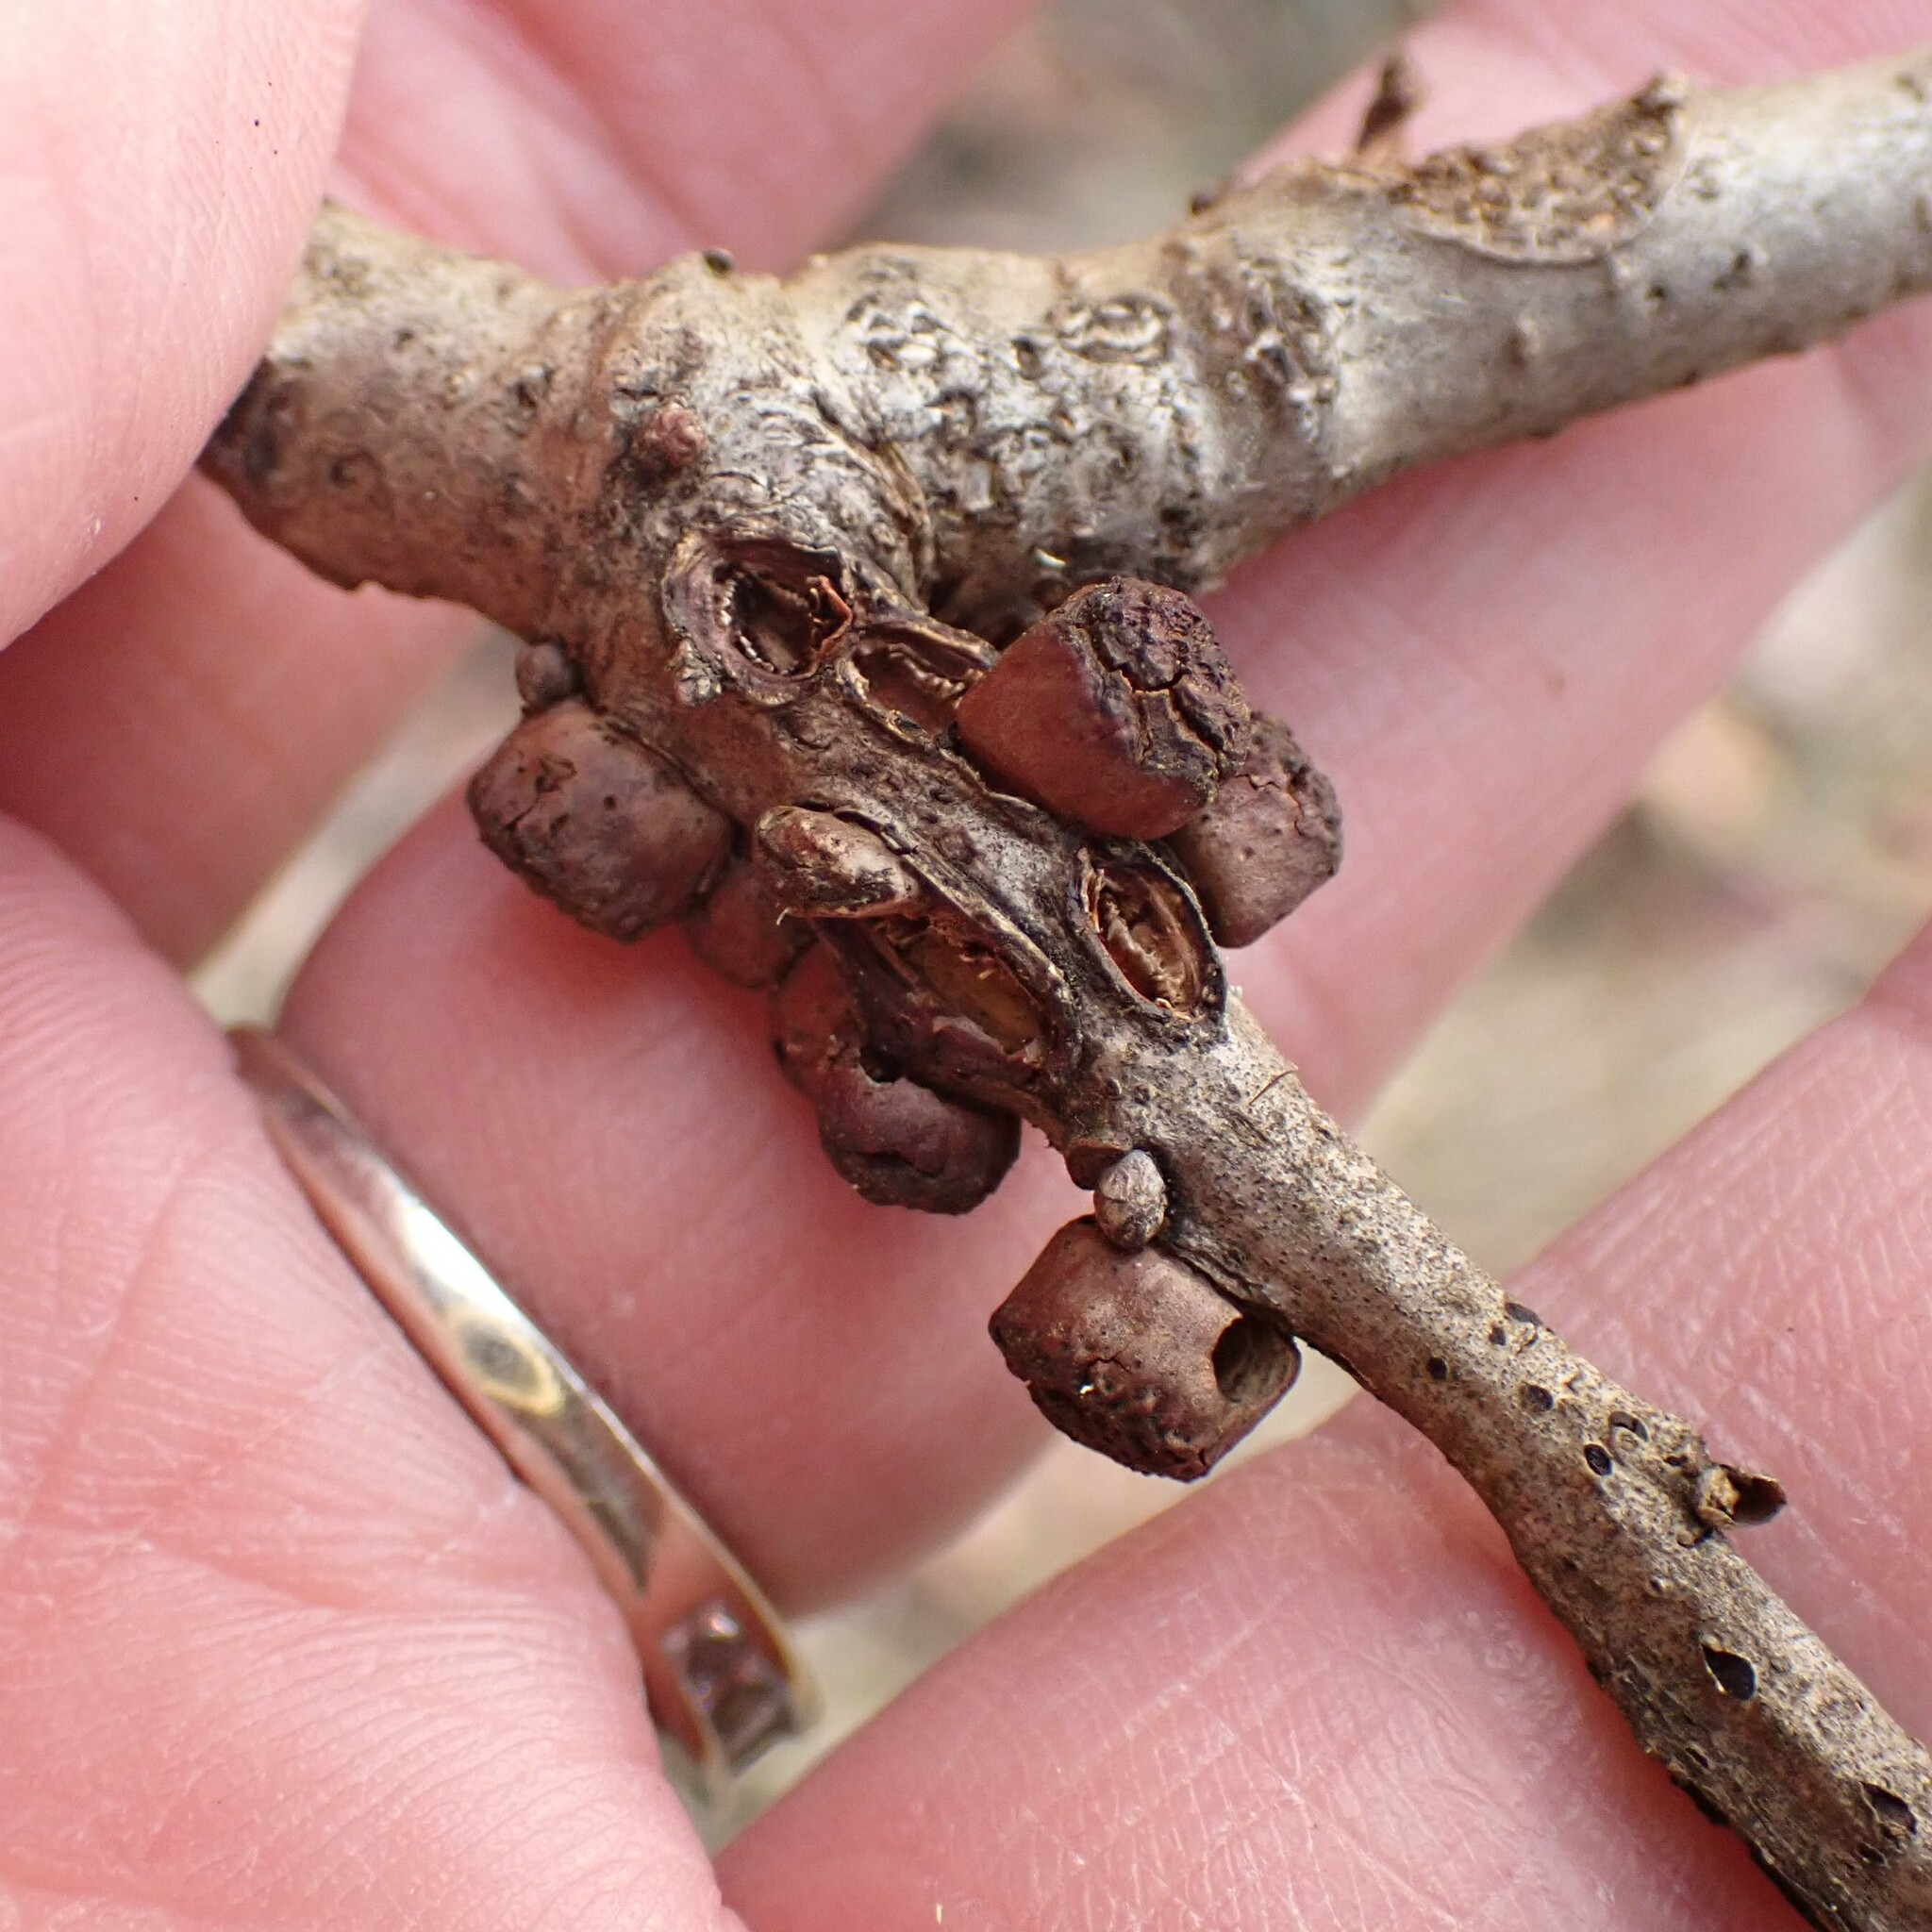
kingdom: Animalia
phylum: Arthropoda
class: Insecta
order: Hymenoptera
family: Cynipidae
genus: Disholcaspis
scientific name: Disholcaspis
